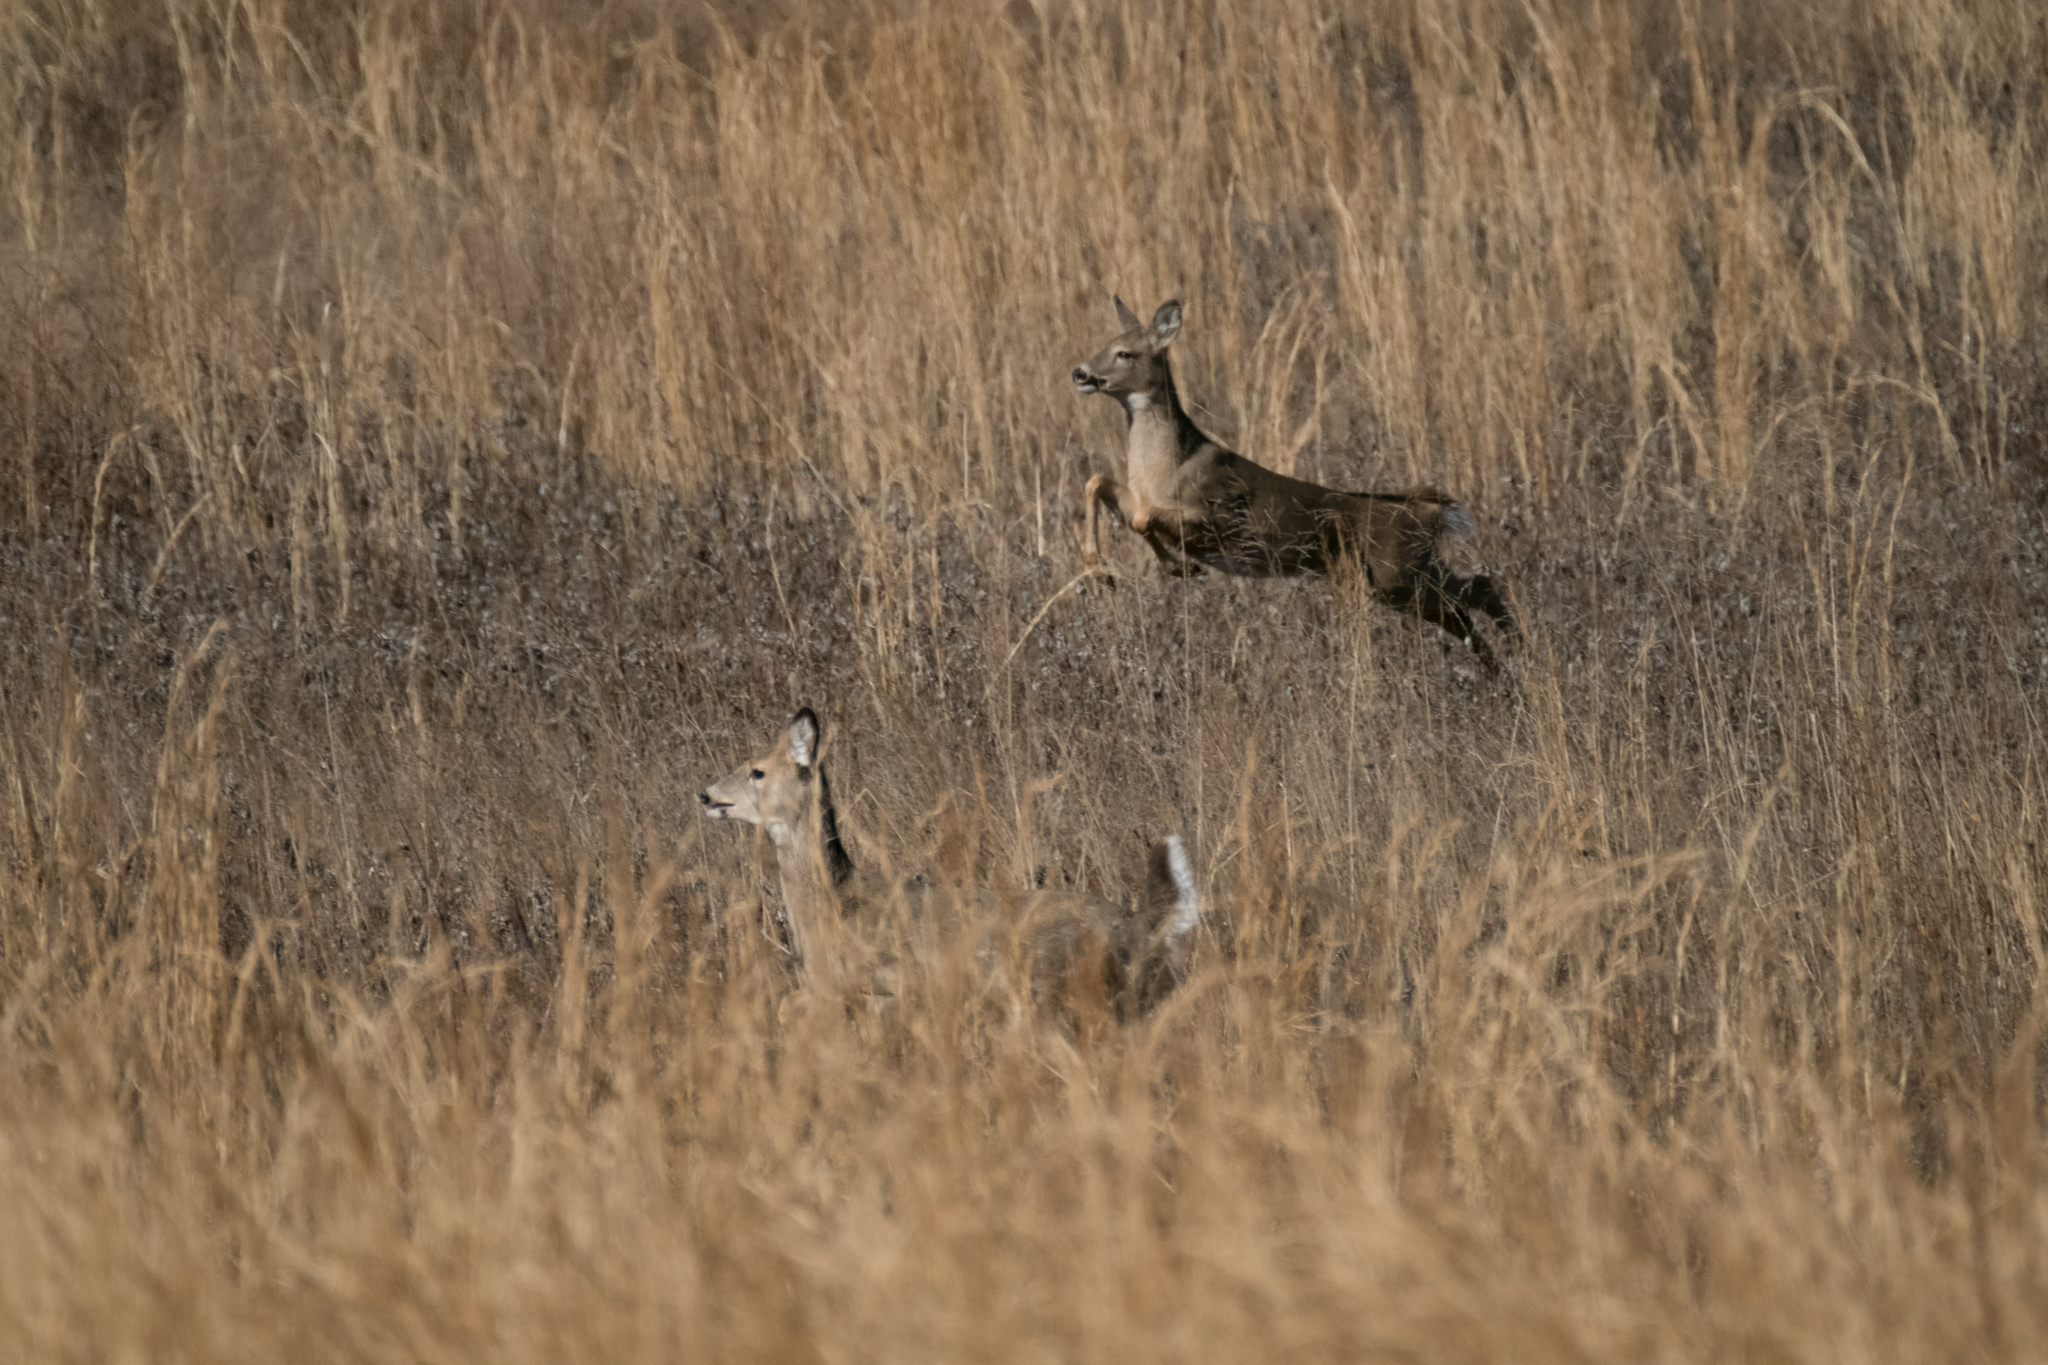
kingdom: Animalia
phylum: Chordata
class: Mammalia
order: Artiodactyla
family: Cervidae
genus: Odocoileus
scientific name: Odocoileus virginianus
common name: White-tailed deer
